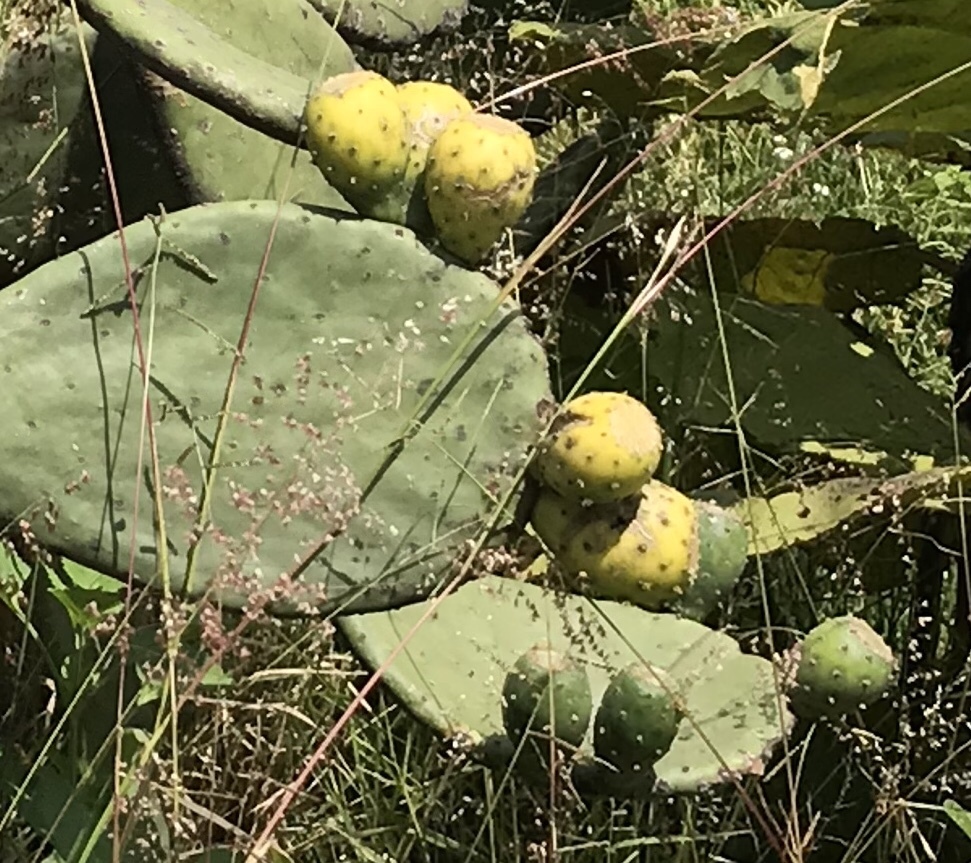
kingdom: Plantae
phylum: Tracheophyta
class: Magnoliopsida
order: Caryophyllales
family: Cactaceae
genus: Opuntia
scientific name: Opuntia ficus-indica
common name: Barbary fig
